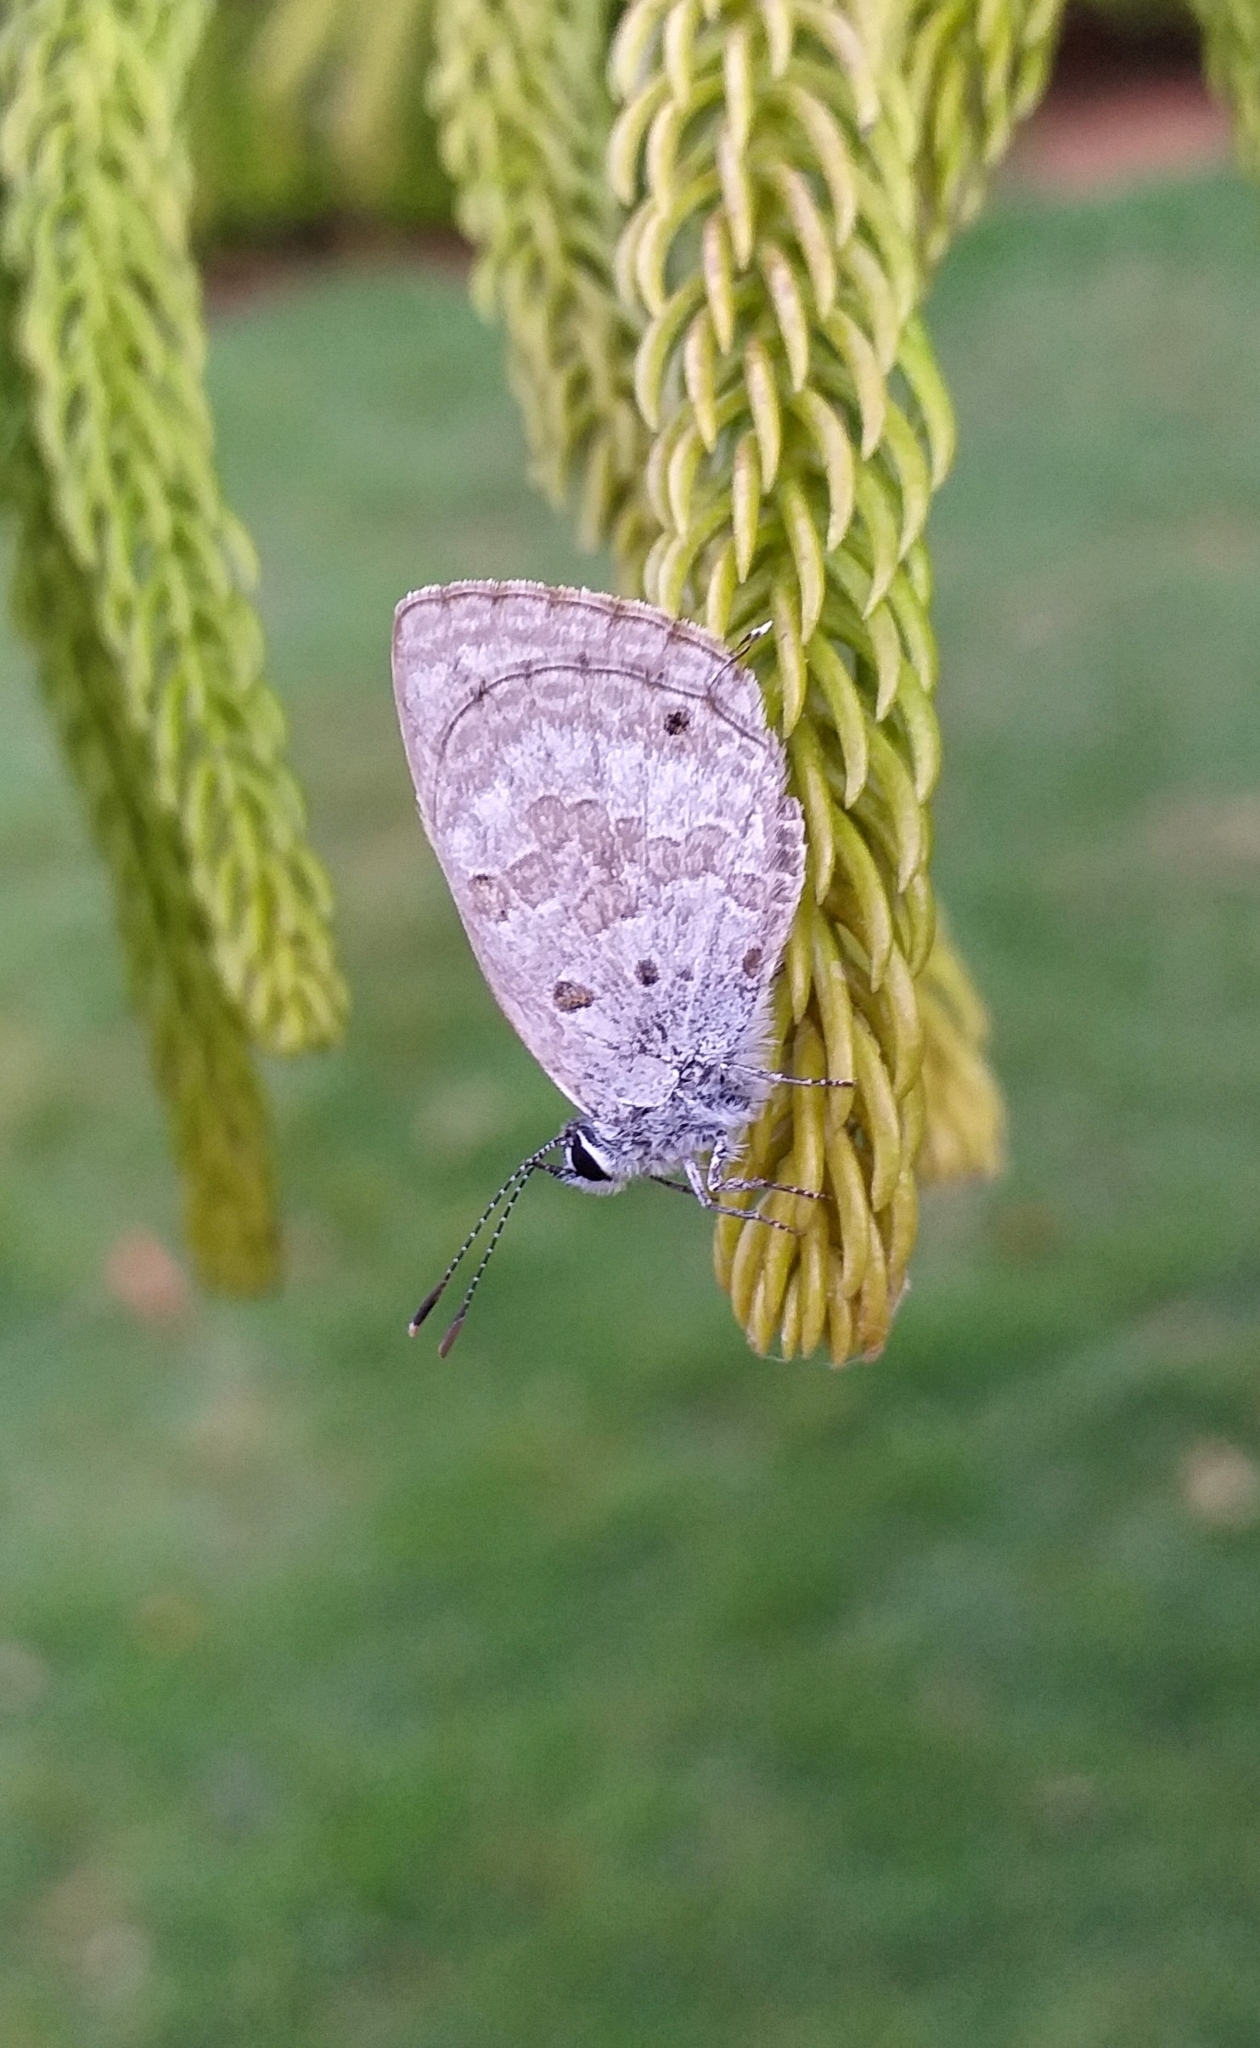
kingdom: Animalia
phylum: Arthropoda
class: Insecta
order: Lepidoptera
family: Lycaenidae
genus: Luthrodes
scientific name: Luthrodes pandava
